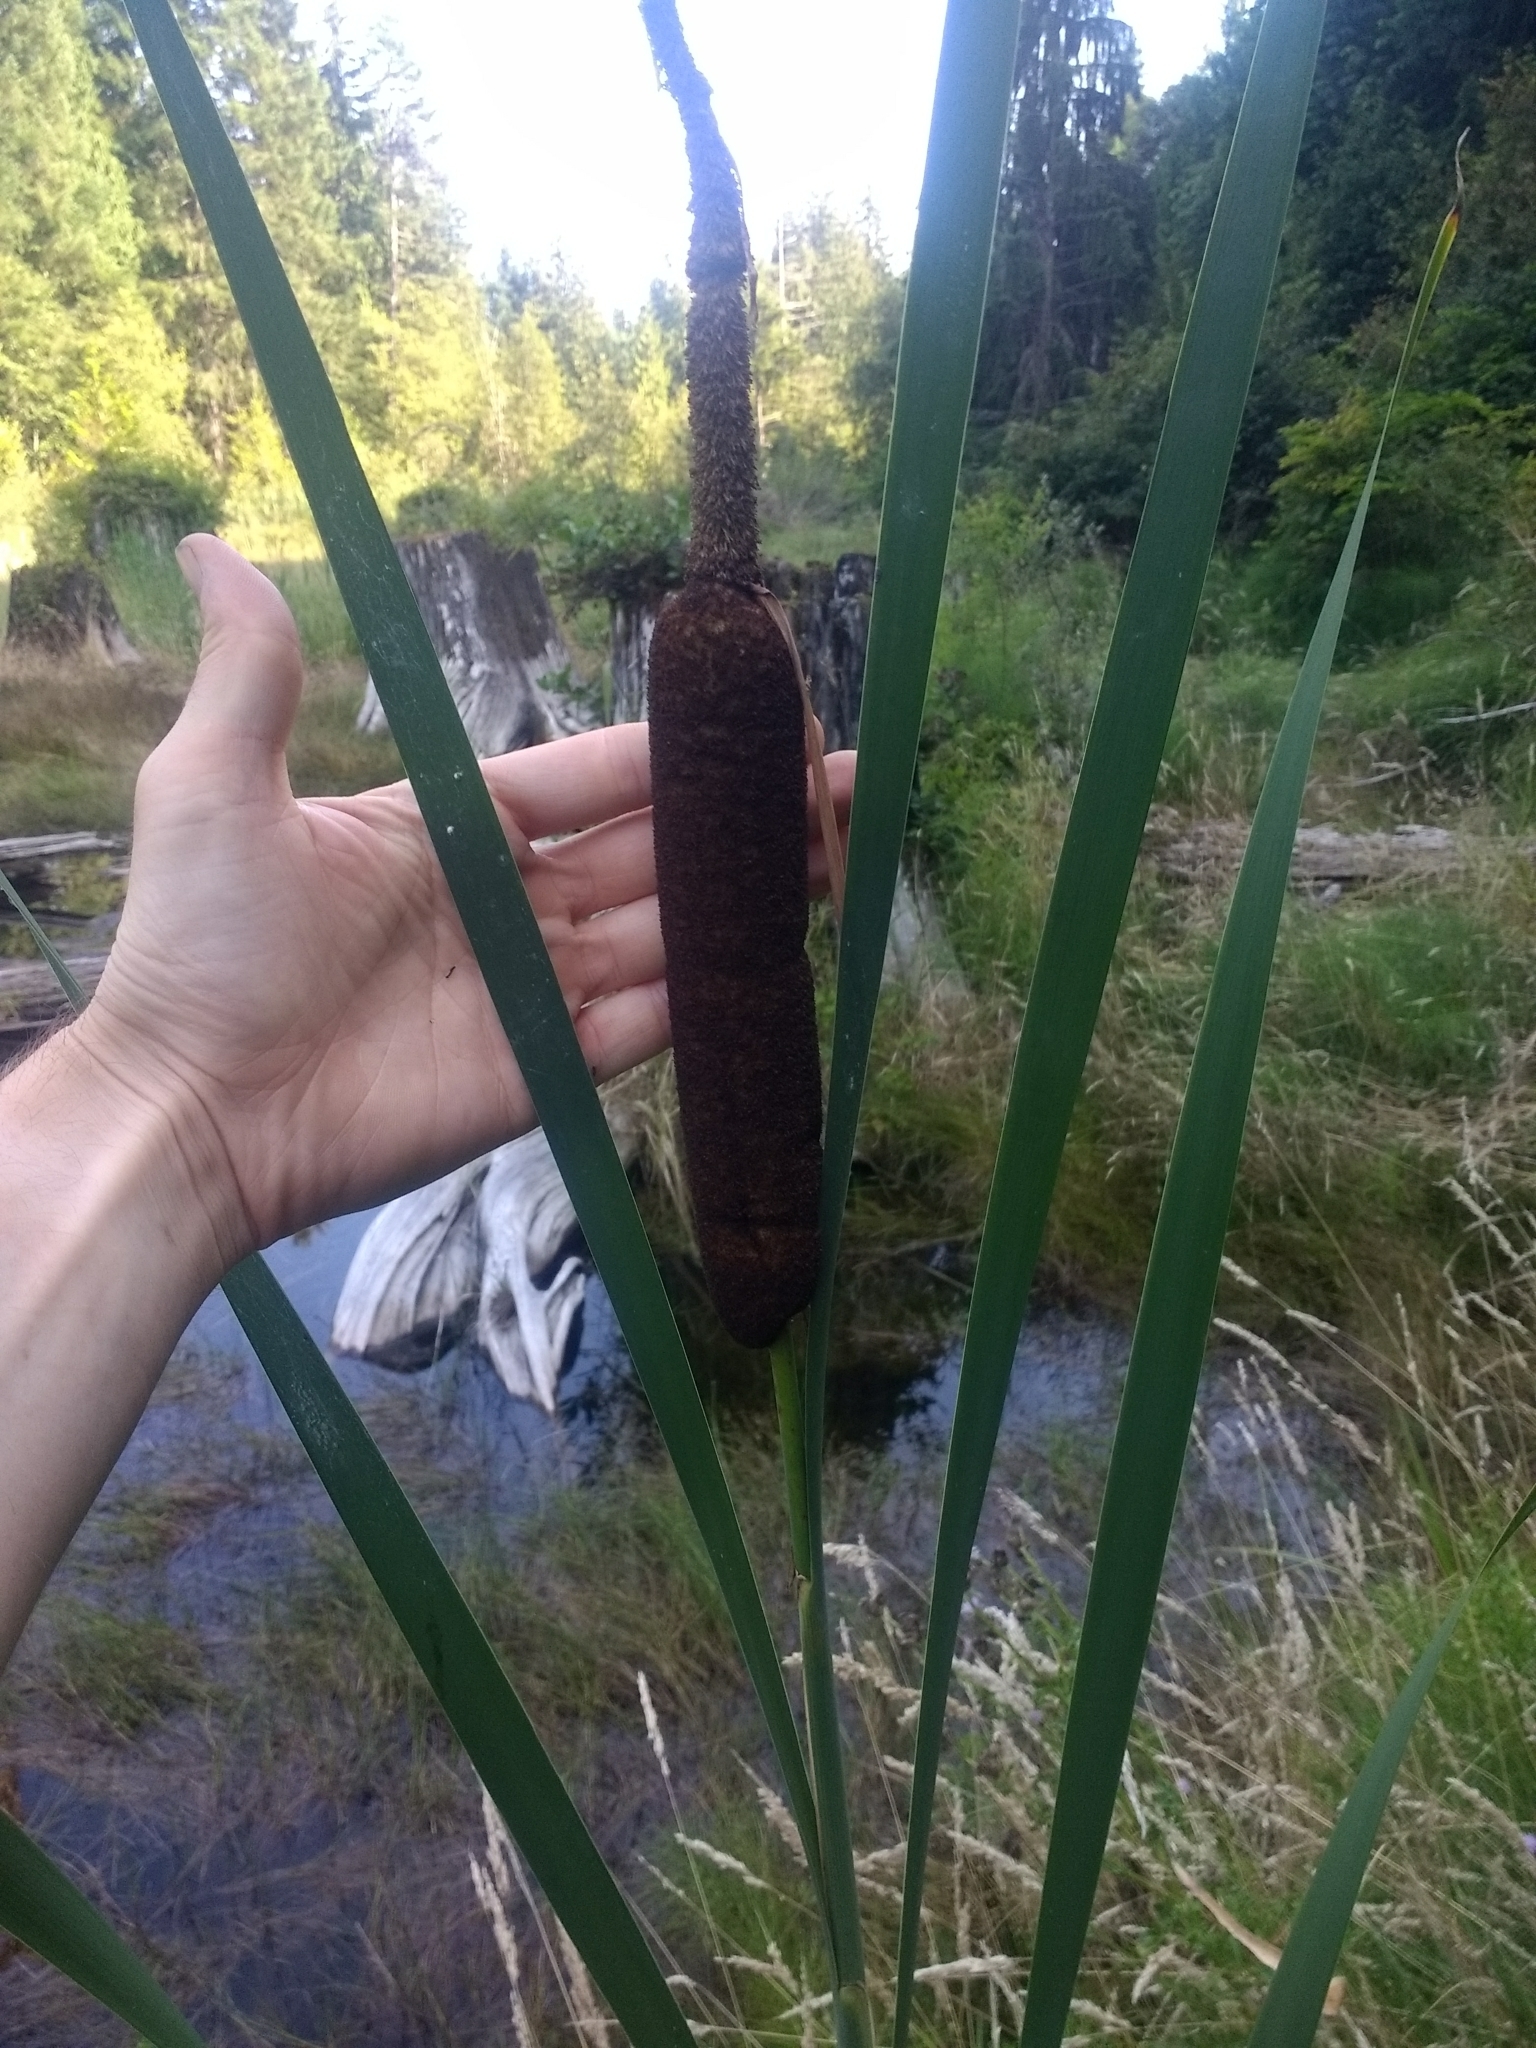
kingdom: Plantae
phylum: Tracheophyta
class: Liliopsida
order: Poales
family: Typhaceae
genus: Typha
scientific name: Typha latifolia
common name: Broadleaf cattail
